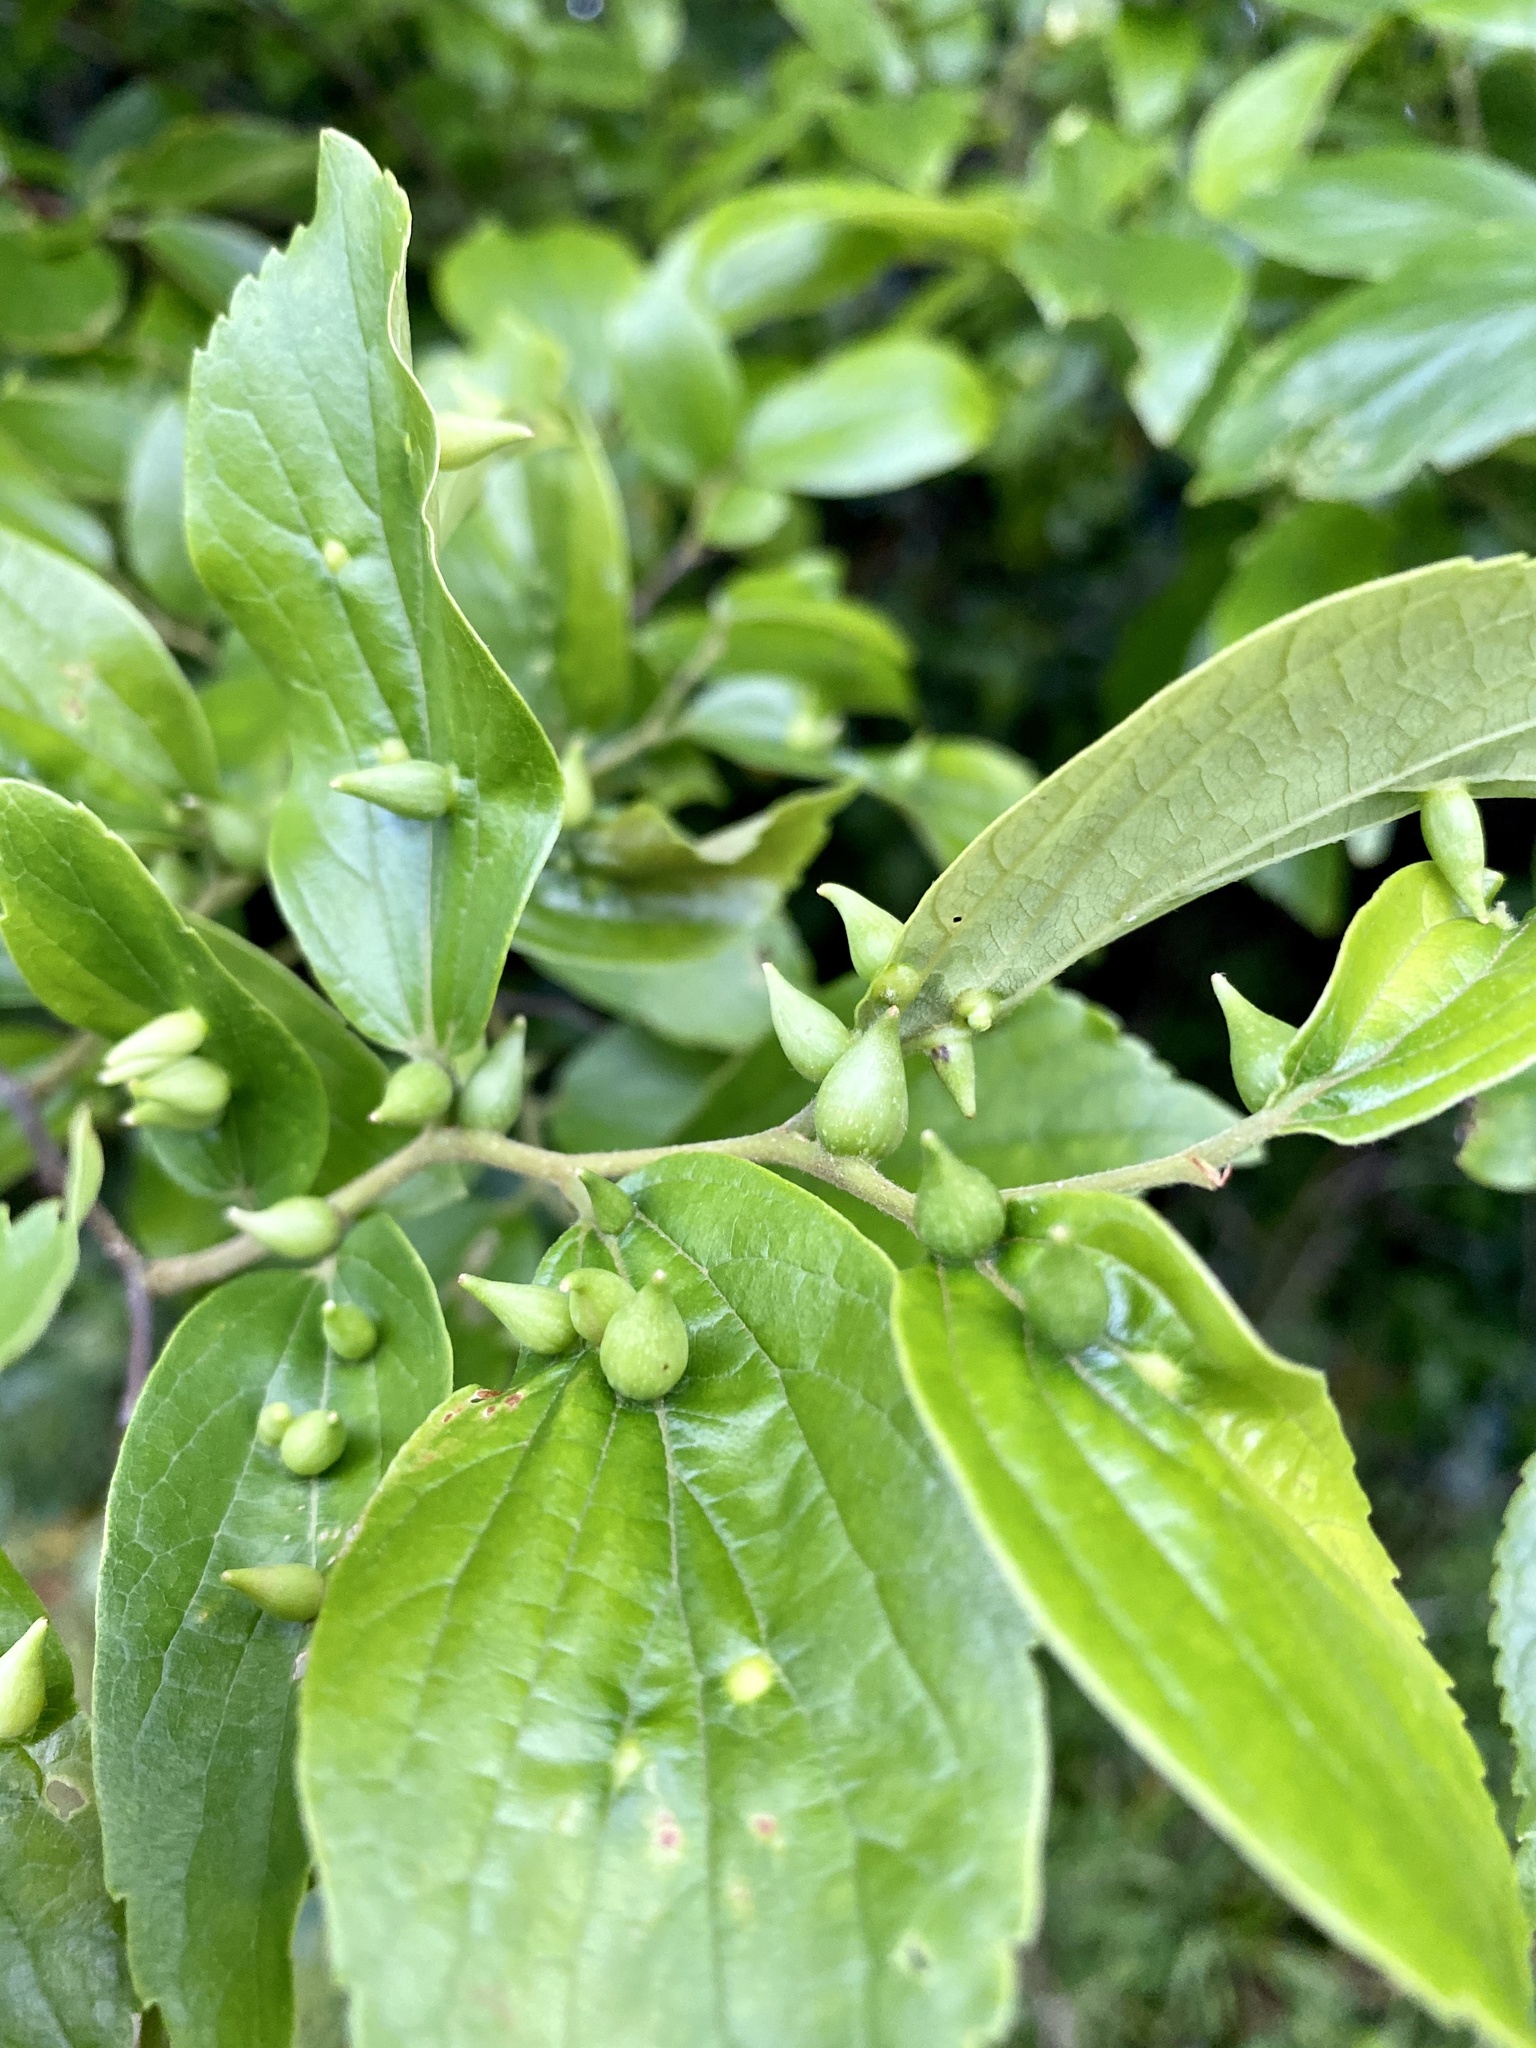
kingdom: Animalia
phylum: Arthropoda
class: Insecta
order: Diptera
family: Cecidomyiidae
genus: Celticecis
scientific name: Celticecis japonica
